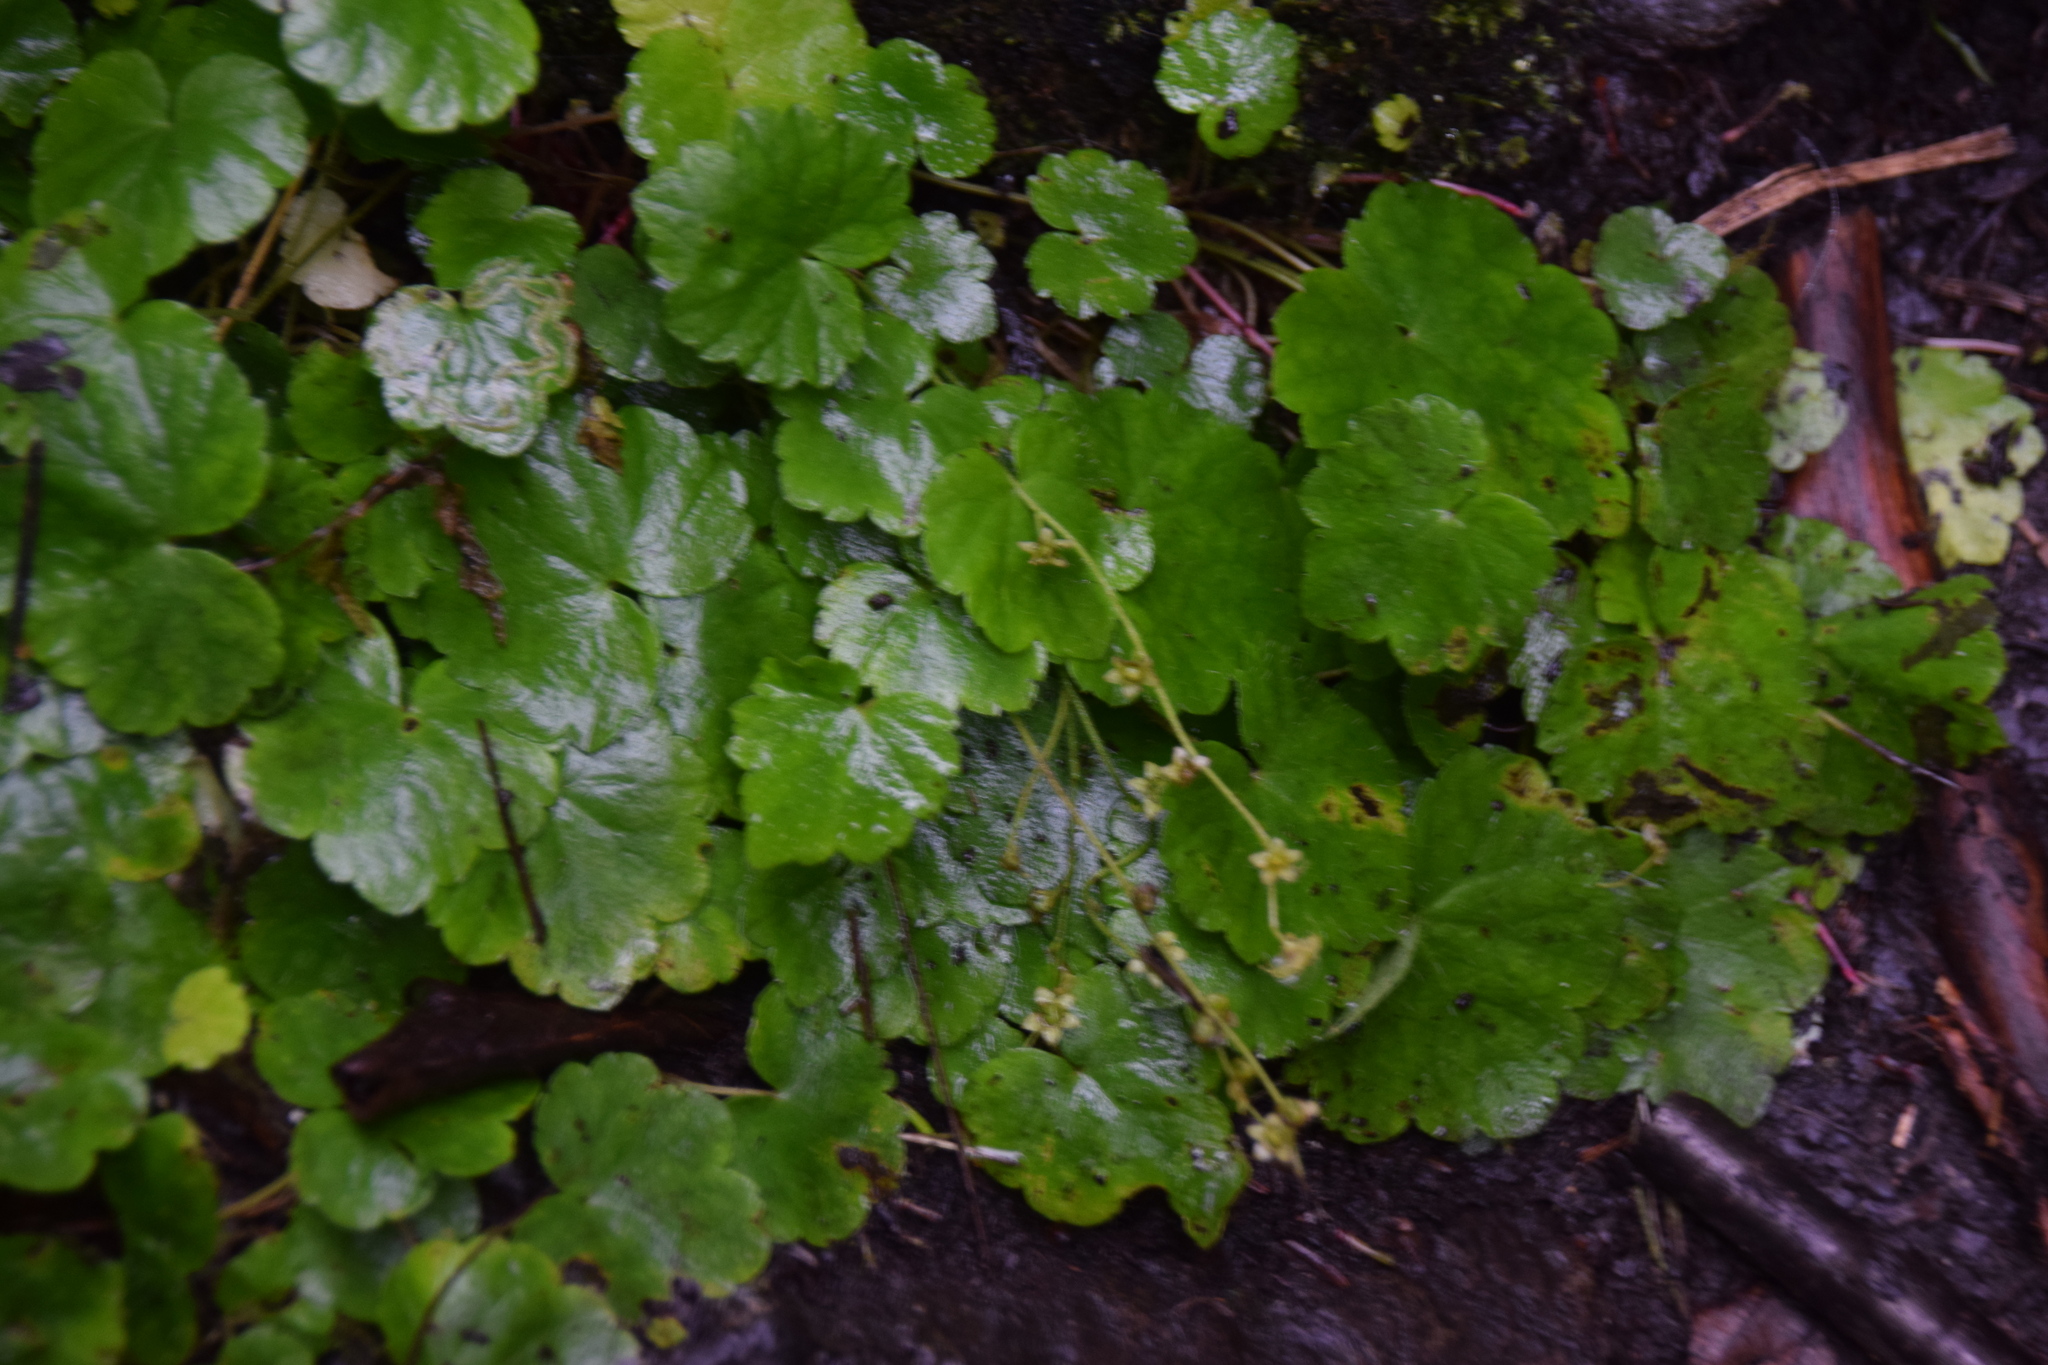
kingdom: Plantae
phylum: Tracheophyta
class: Magnoliopsida
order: Saxifragales
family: Saxifragaceae
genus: Mitella
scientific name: Mitella nuda
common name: Bare-stemmed bishop's-cap
